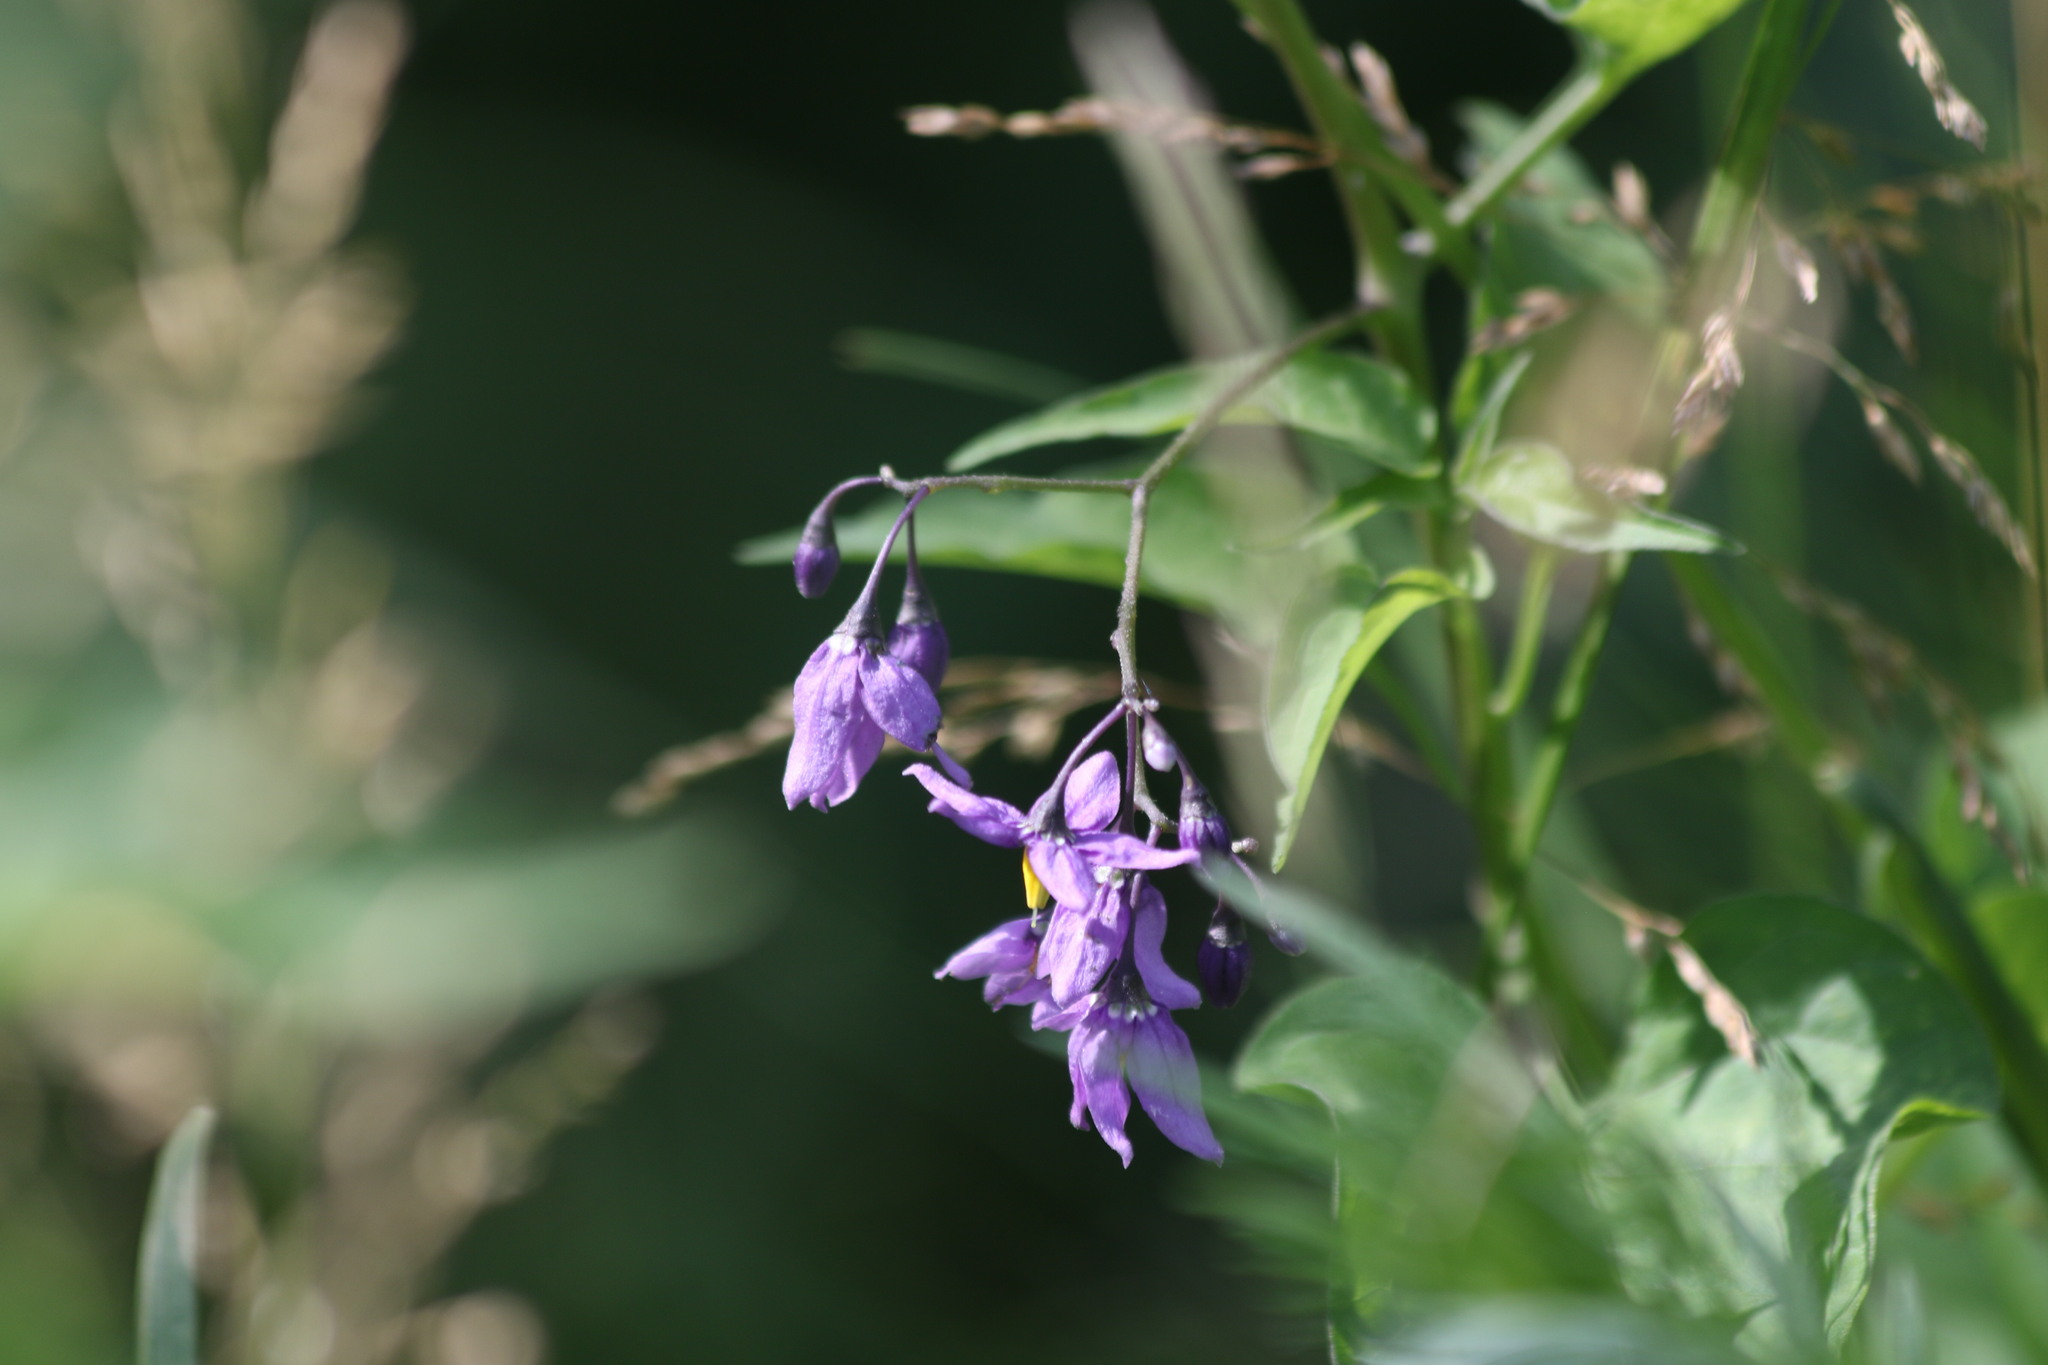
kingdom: Plantae
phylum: Tracheophyta
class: Magnoliopsida
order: Solanales
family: Solanaceae
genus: Solanum
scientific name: Solanum dulcamara
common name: Climbing nightshade
